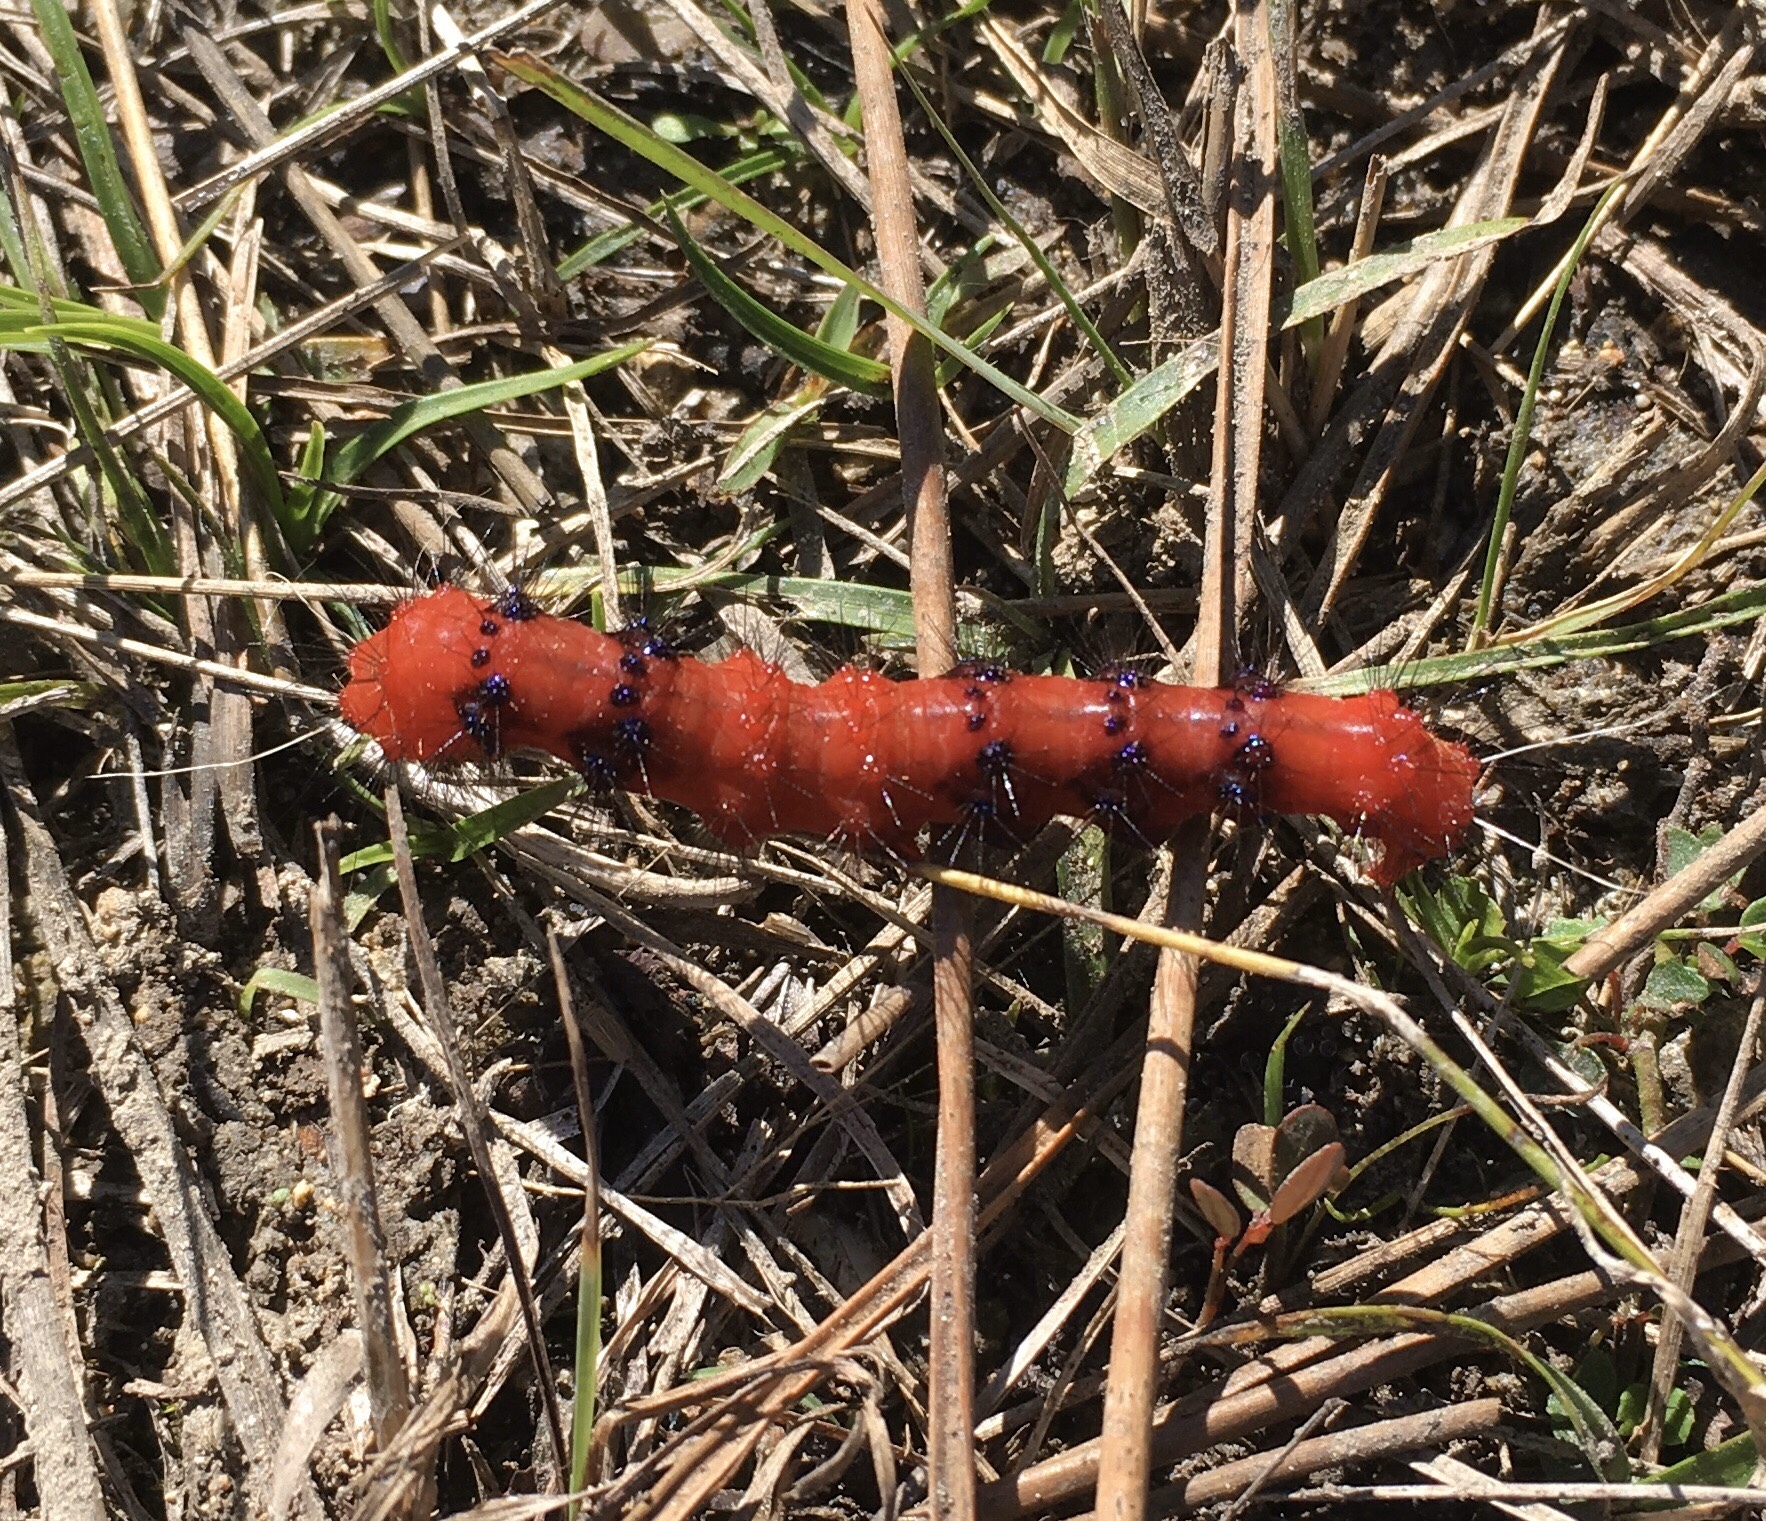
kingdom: Animalia
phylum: Arthropoda
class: Insecta
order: Lepidoptera
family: Erebidae
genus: Composia
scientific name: Composia fidelissima
